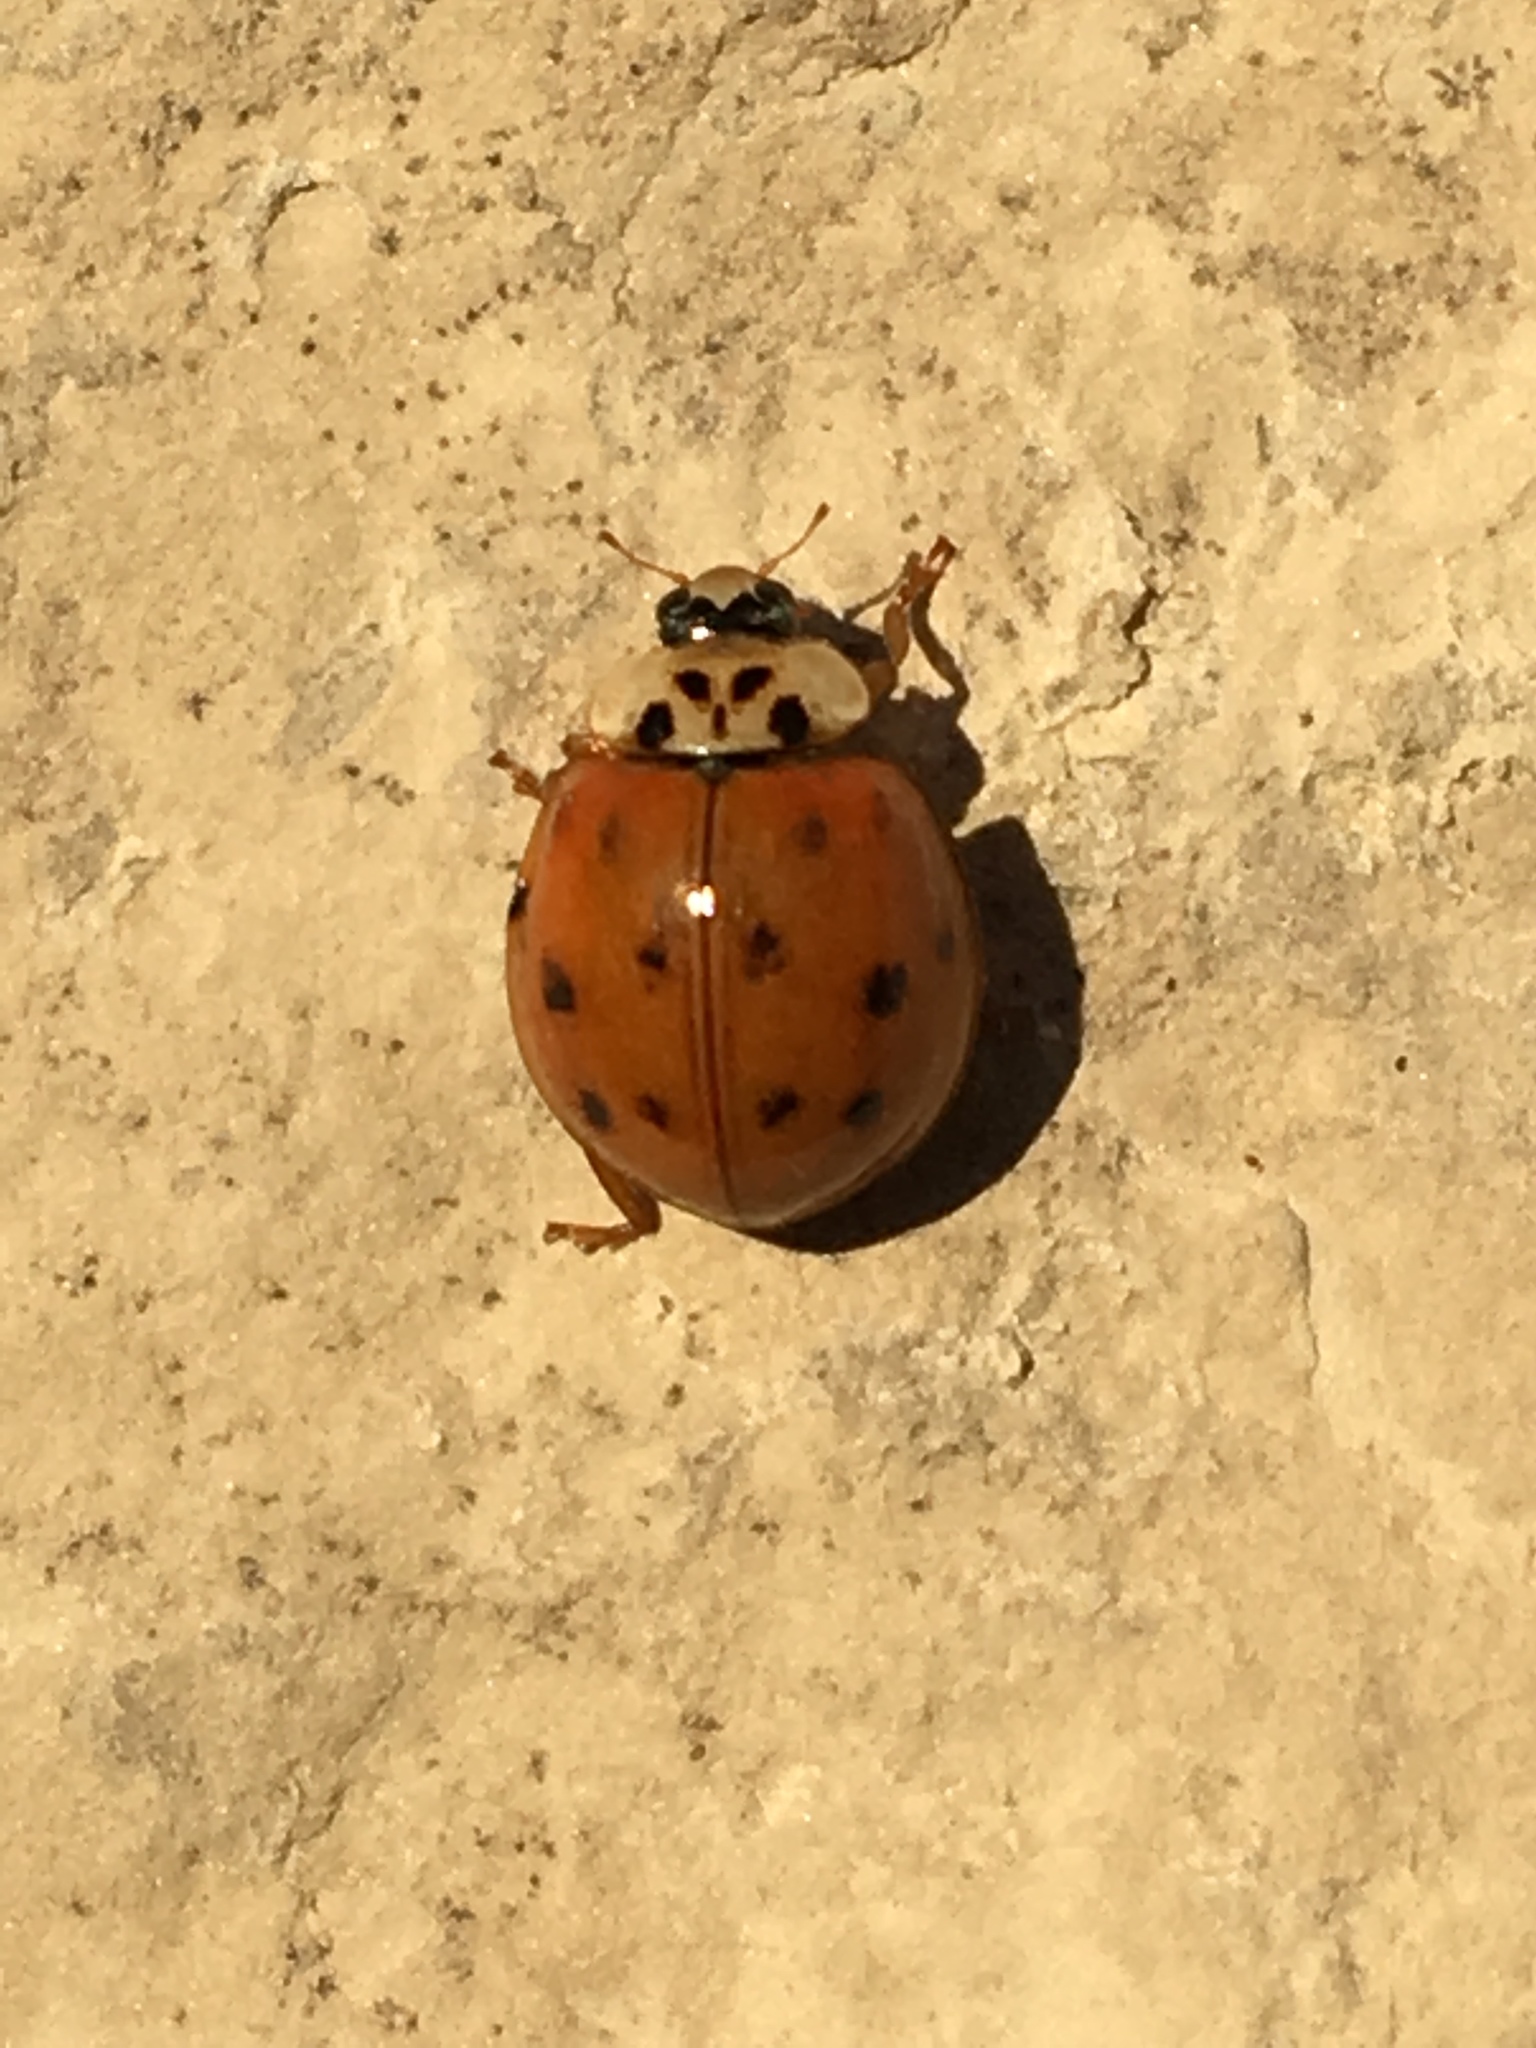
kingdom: Animalia
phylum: Arthropoda
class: Insecta
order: Coleoptera
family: Coccinellidae
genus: Harmonia
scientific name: Harmonia axyridis
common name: Harlequin ladybird
